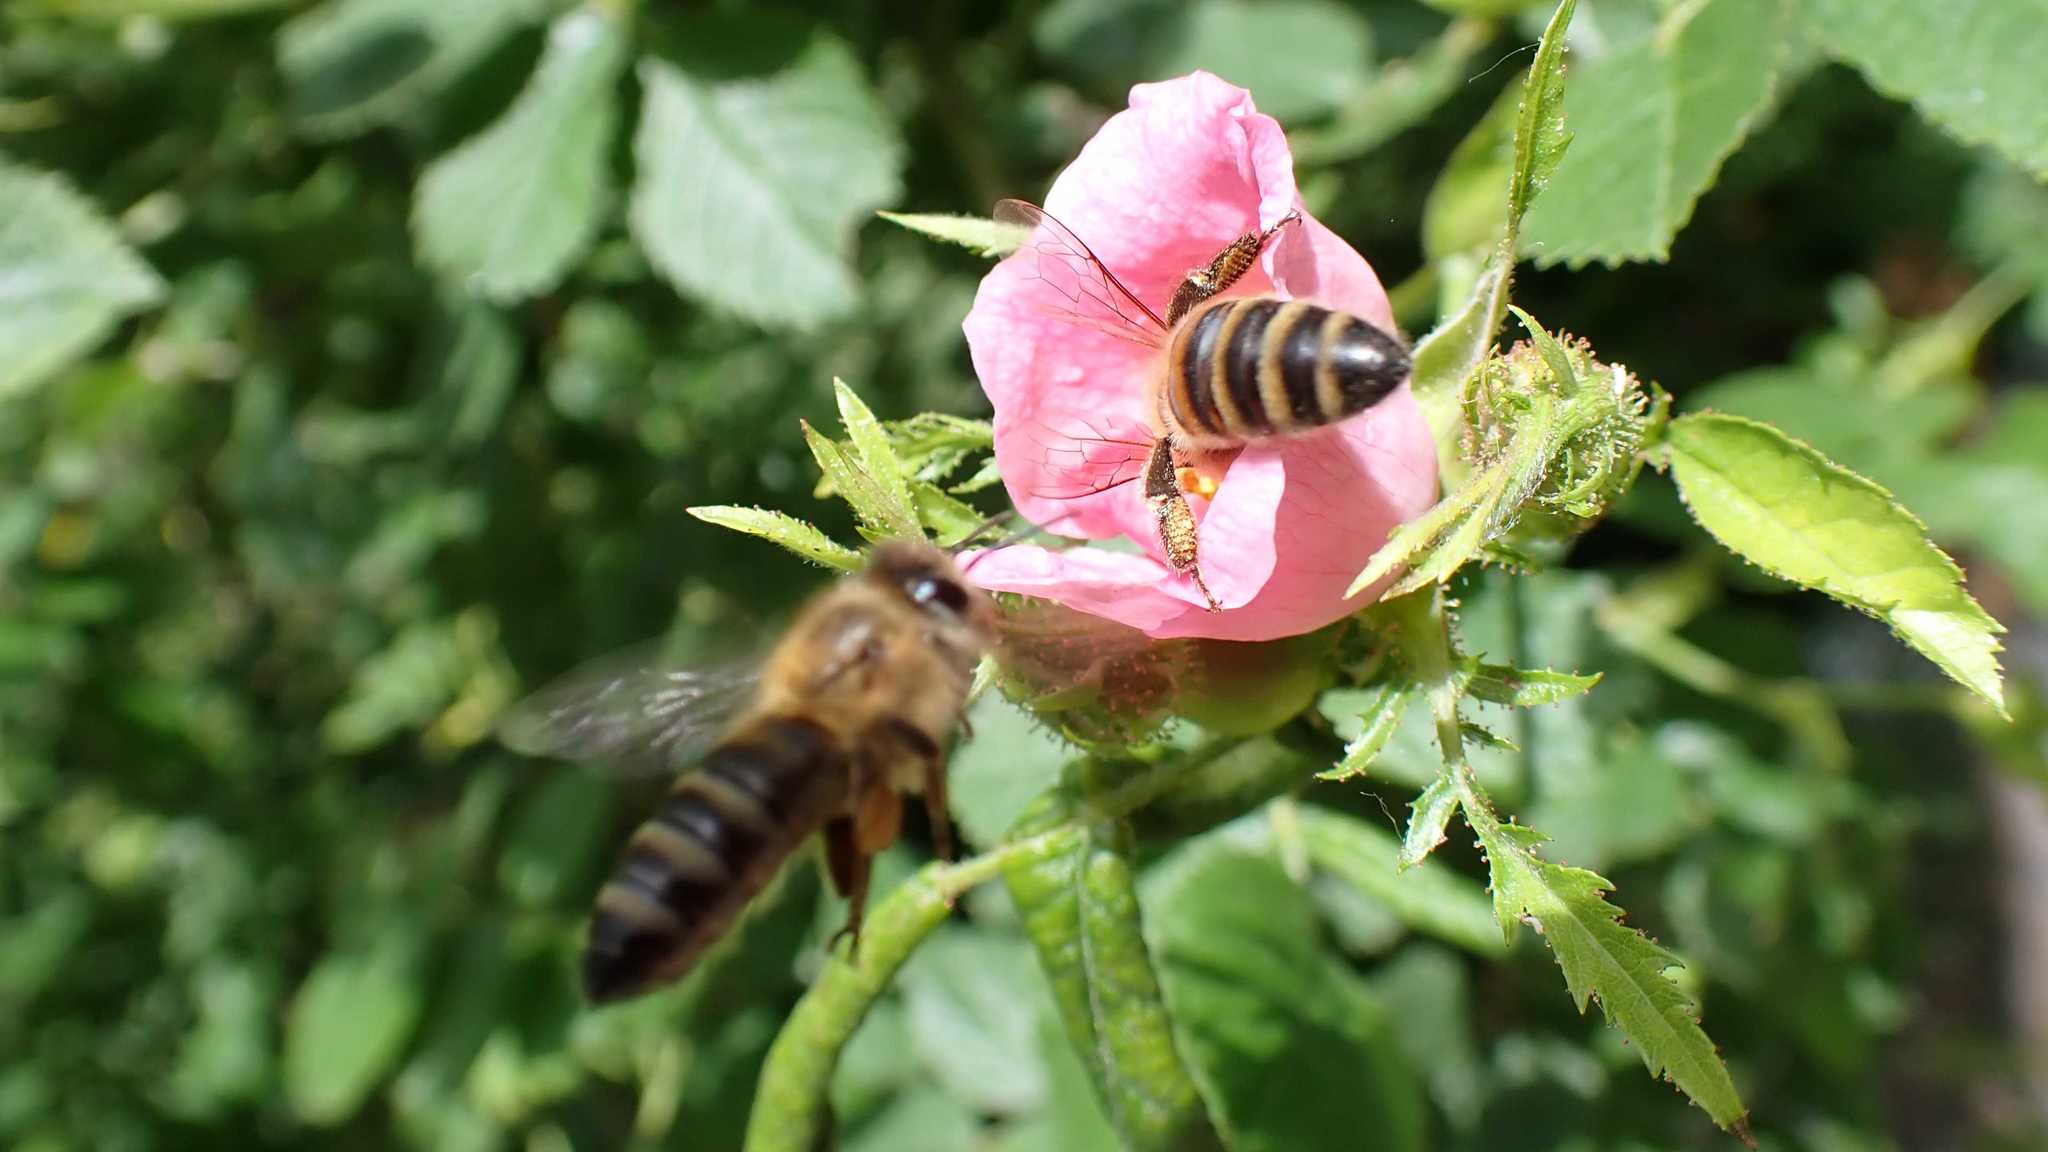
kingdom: Animalia
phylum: Arthropoda
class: Insecta
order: Hymenoptera
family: Apidae
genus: Apis
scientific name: Apis mellifera
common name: Honey bee
